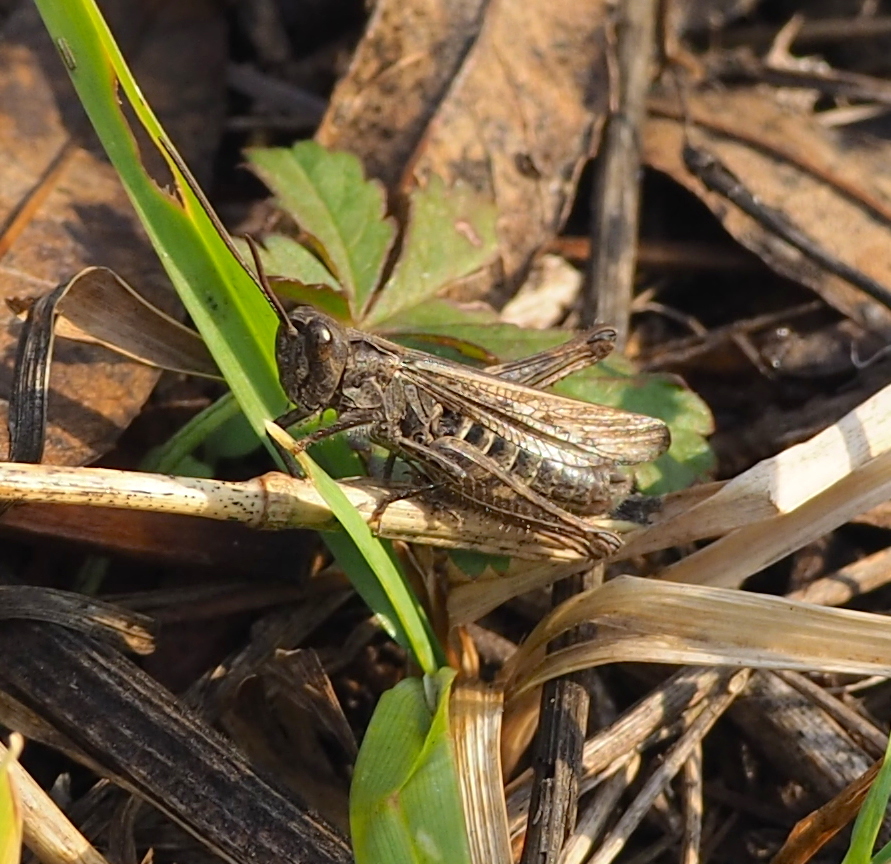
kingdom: Animalia
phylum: Arthropoda
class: Insecta
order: Orthoptera
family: Acrididae
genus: Chorthippus
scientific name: Chorthippus mollis
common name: Lesser field grasshopper
